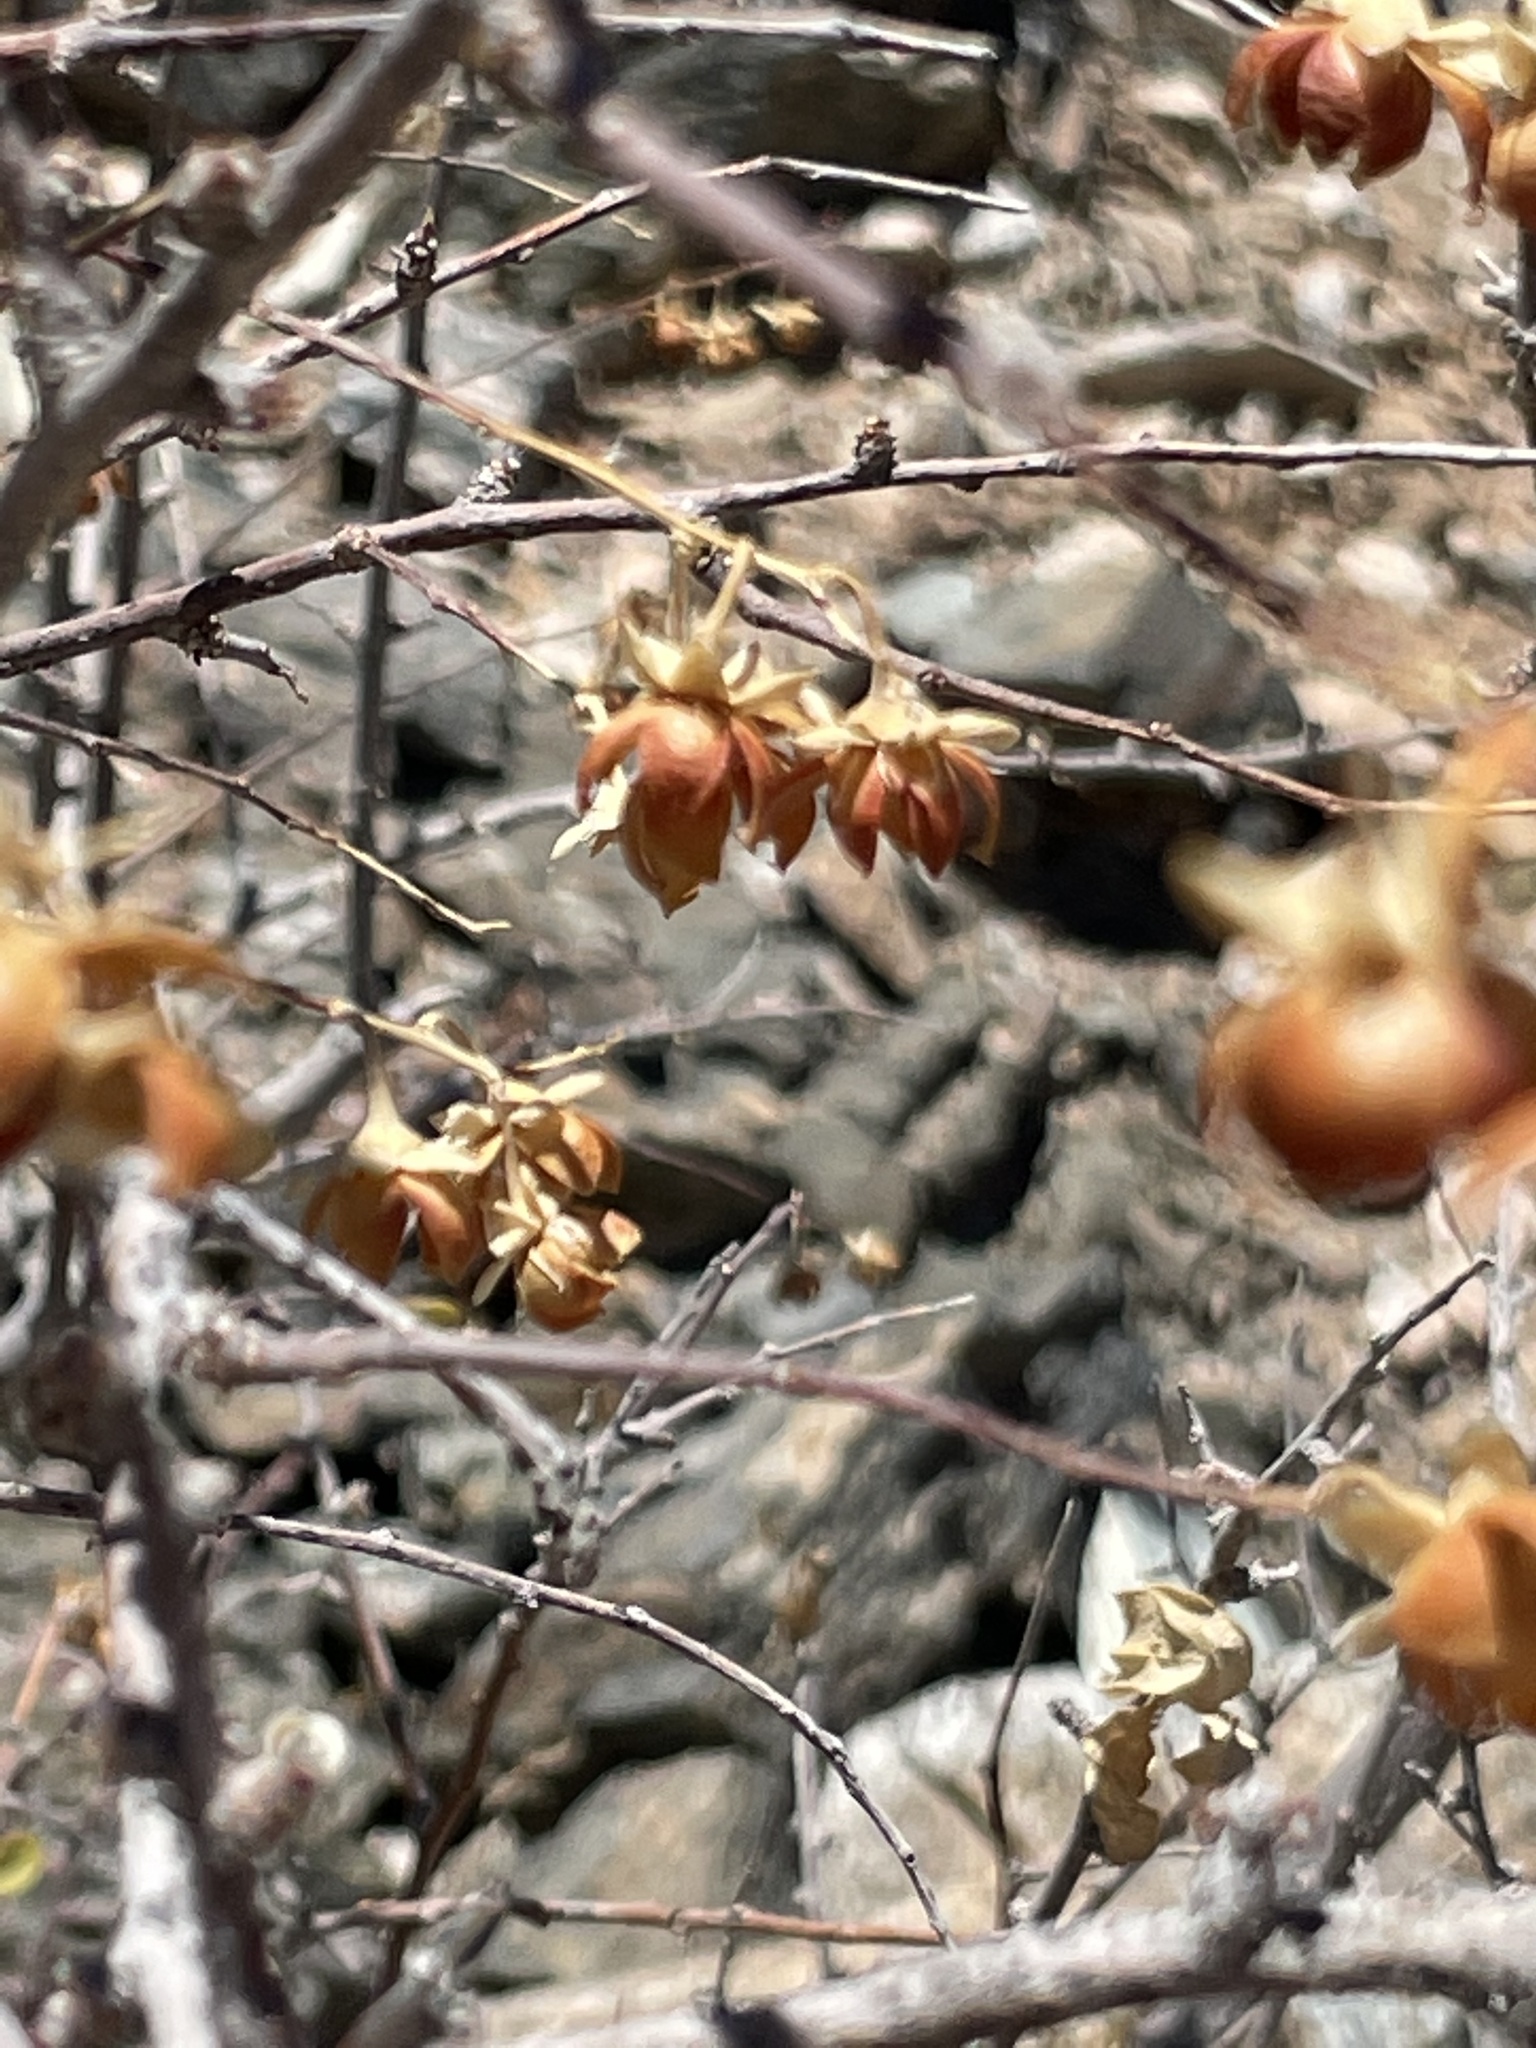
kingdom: Plantae
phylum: Tracheophyta
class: Magnoliopsida
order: Caryophyllales
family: Stegnospermataceae
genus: Stegnosperma
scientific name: Stegnosperma halimifolium
